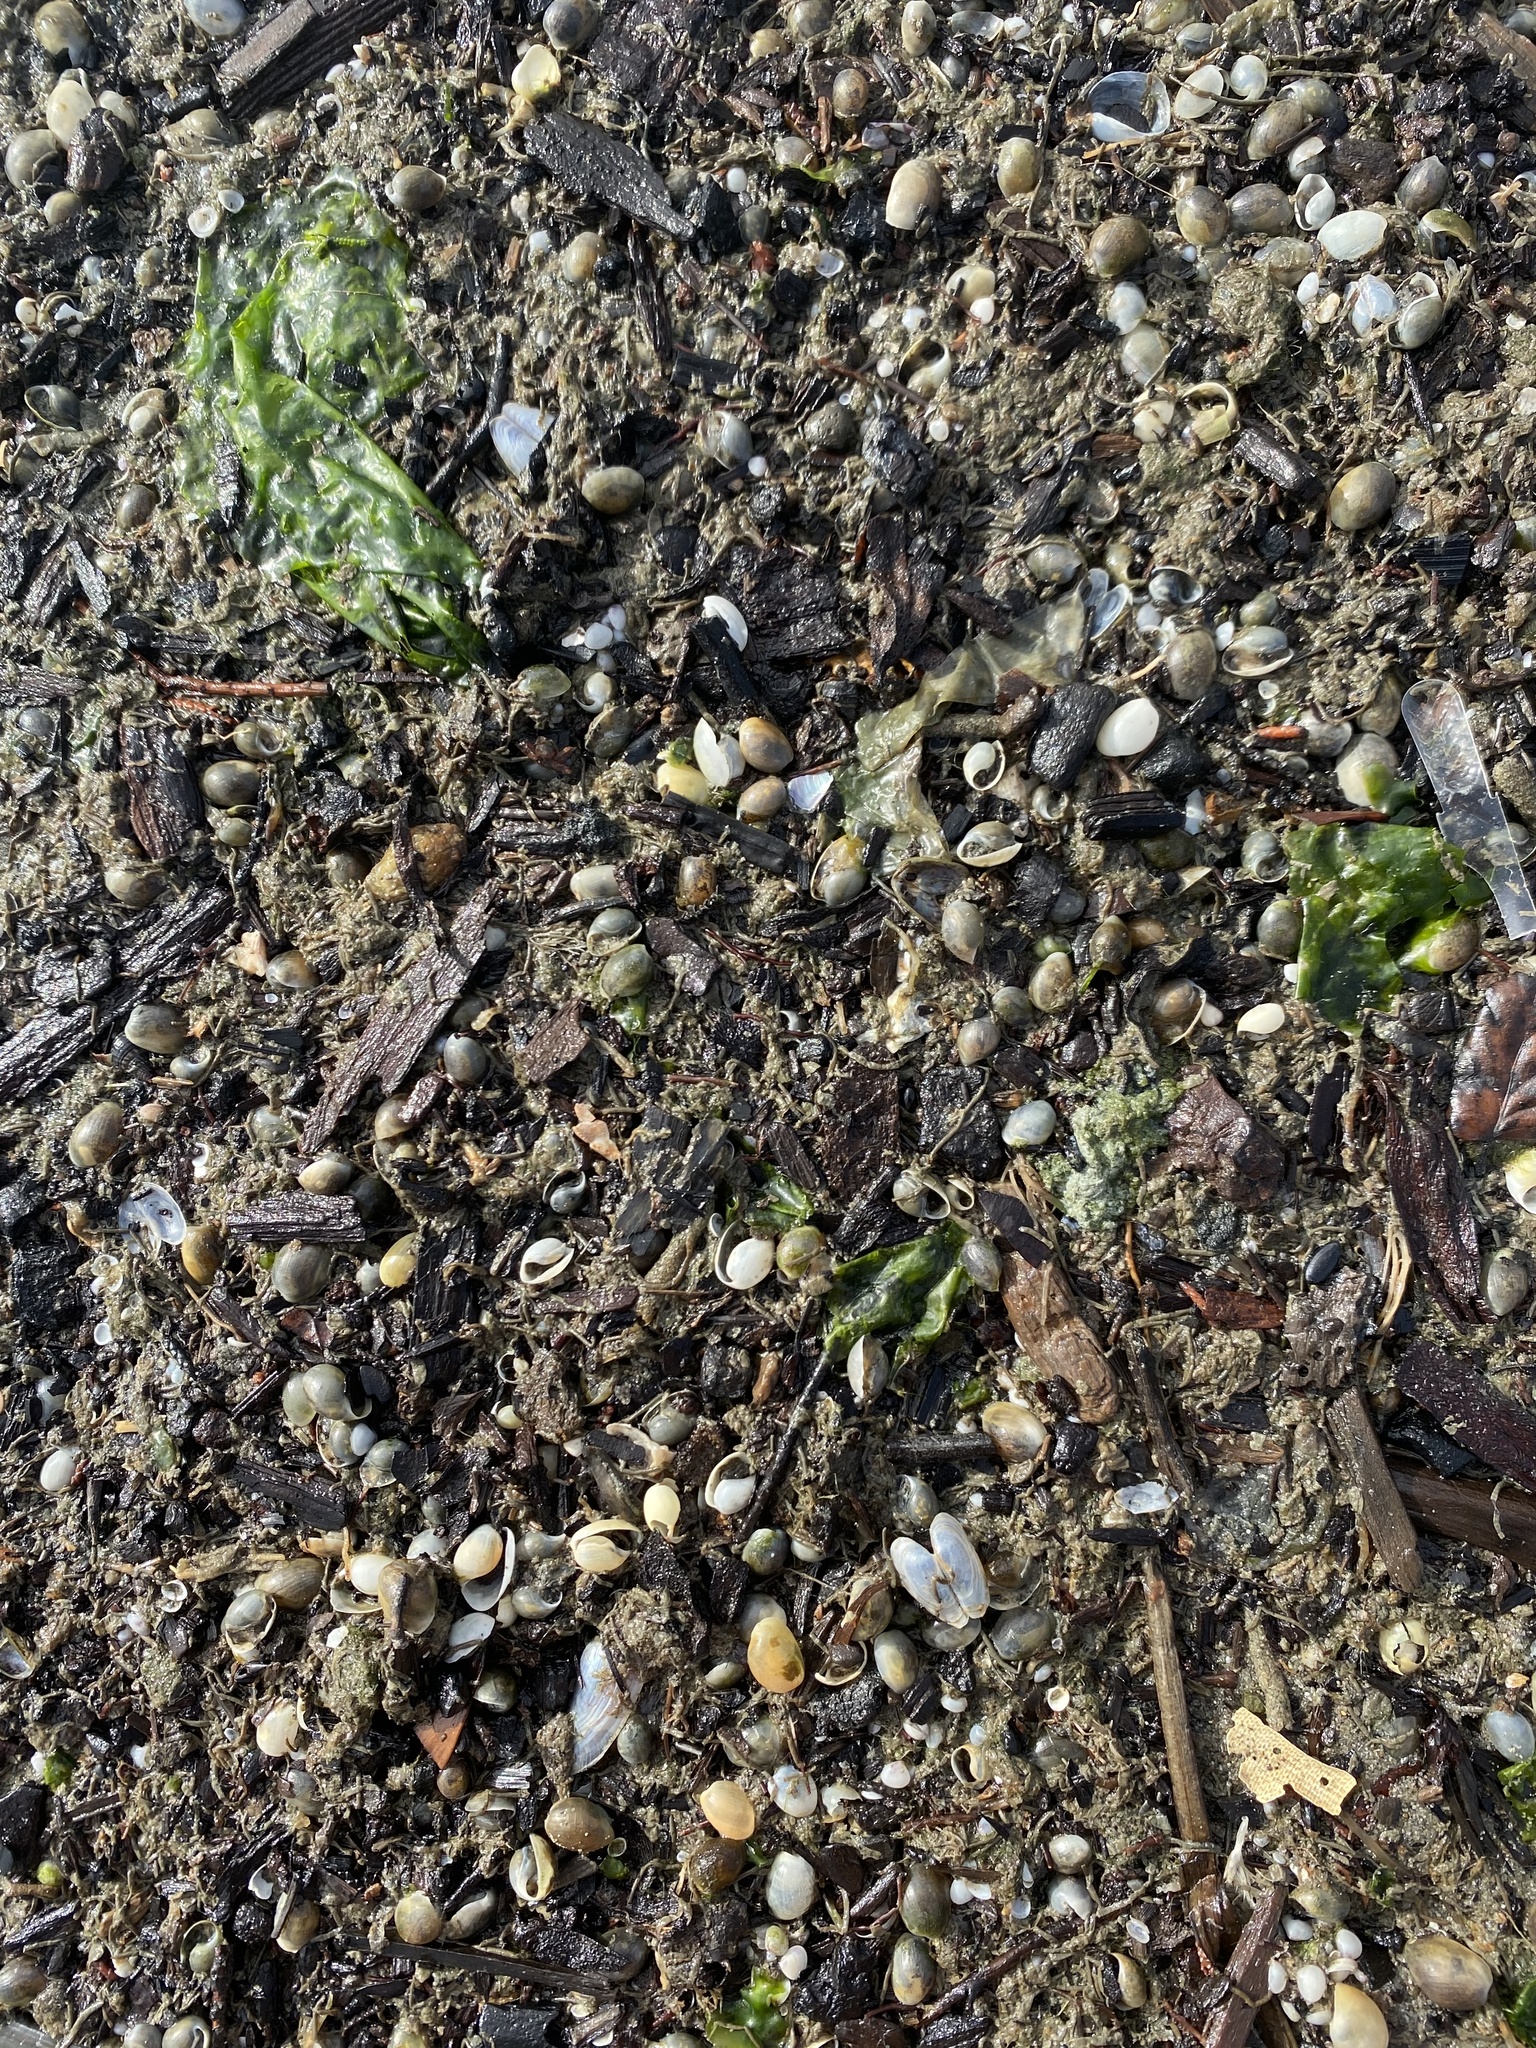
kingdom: Animalia
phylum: Mollusca
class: Gastropoda
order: Cephalaspidea
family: Haminoeidae
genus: Haloa
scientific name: Haloa japonica
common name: Japanese bubble snail
